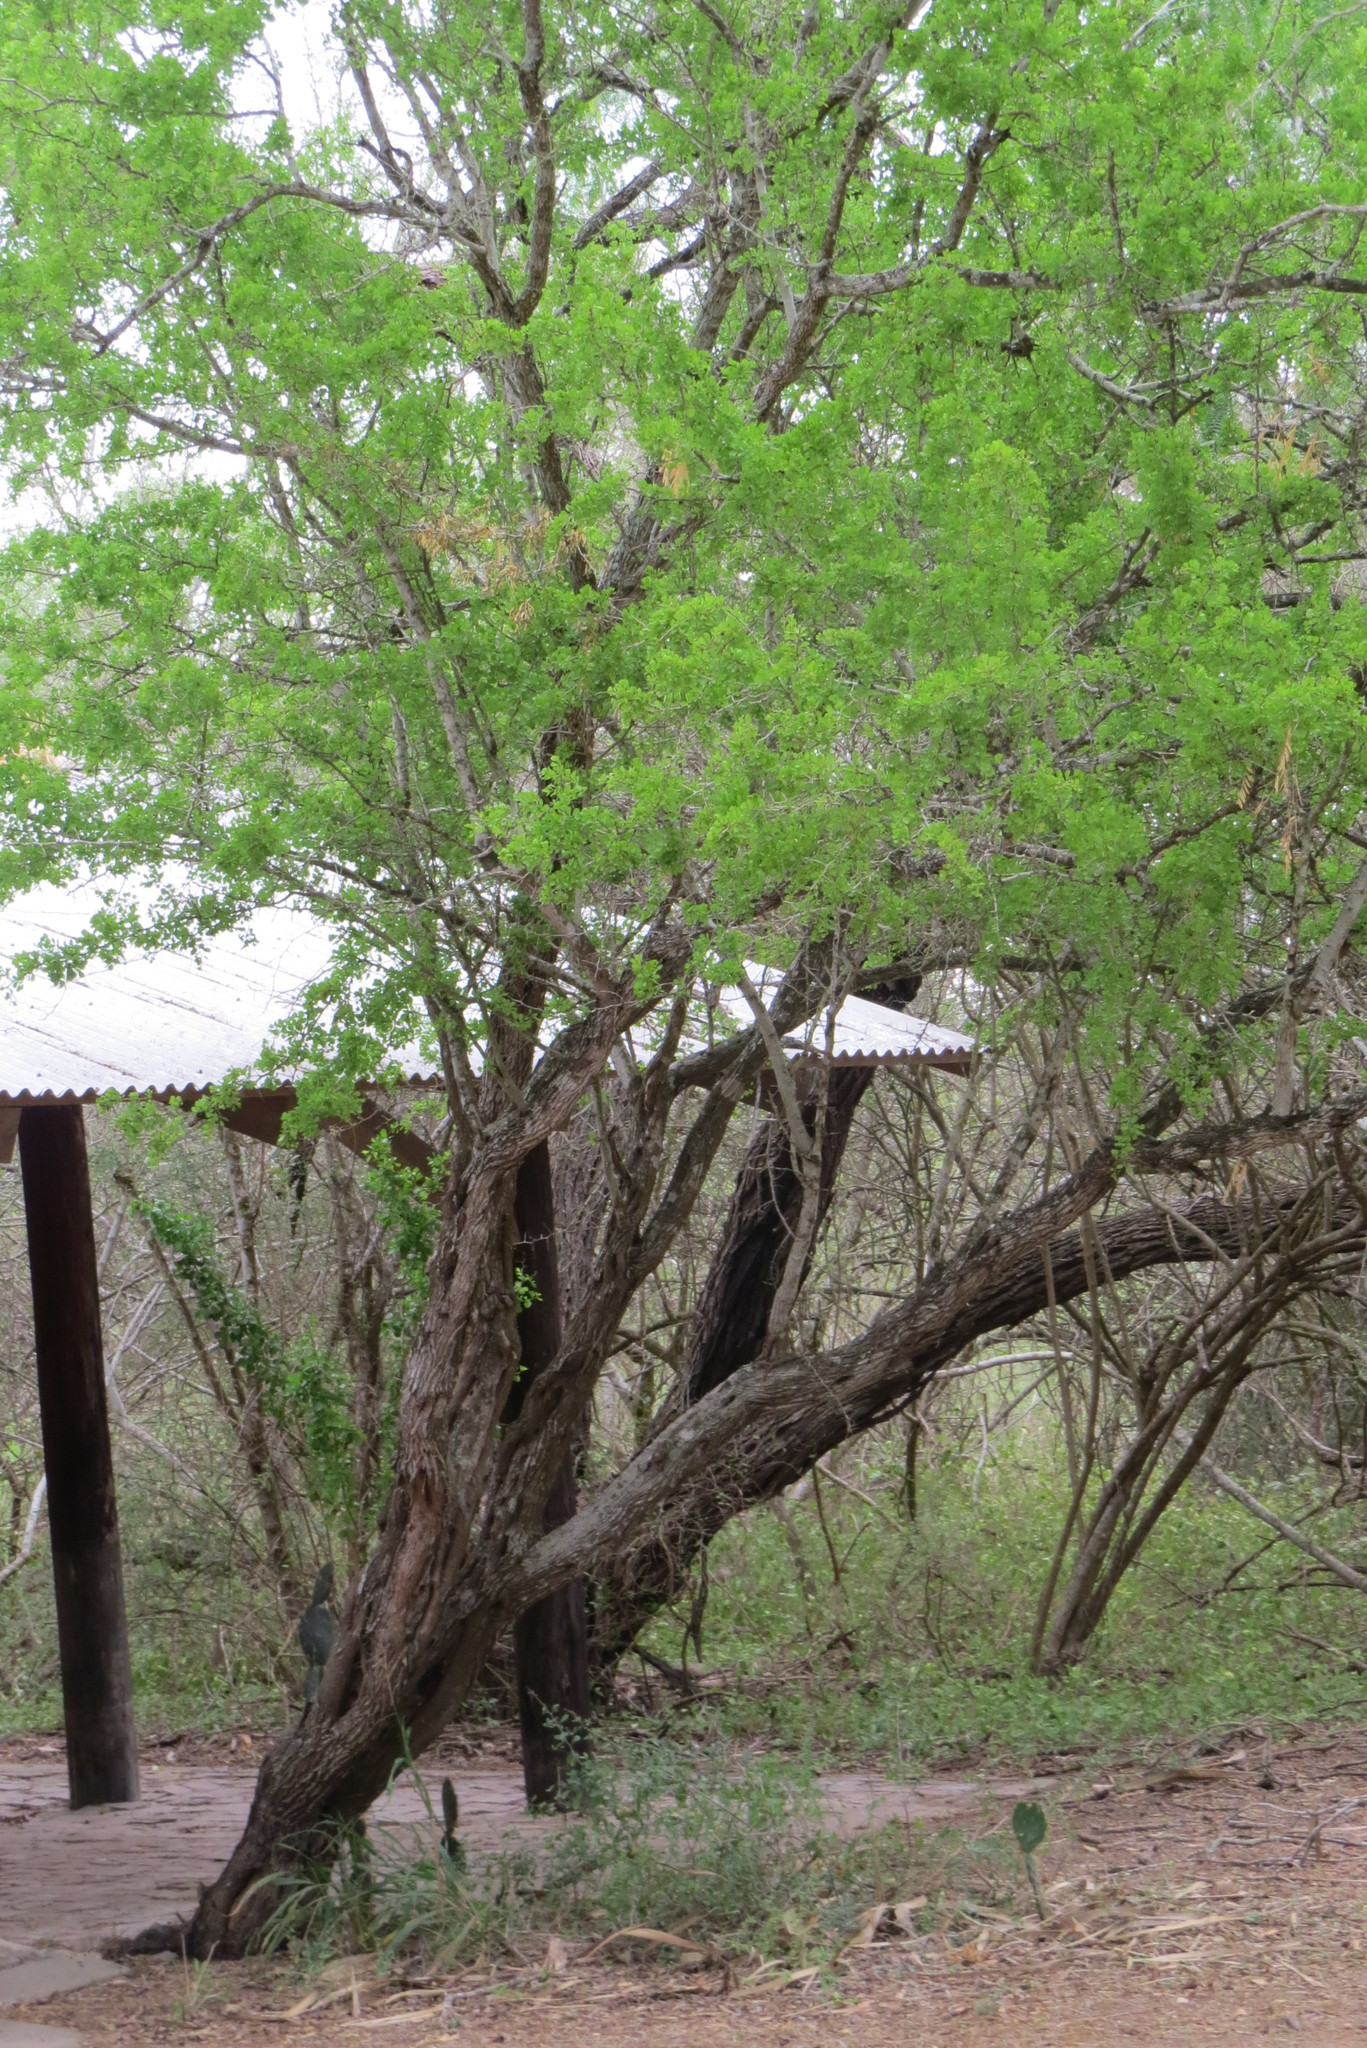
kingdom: Plantae
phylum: Tracheophyta
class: Magnoliopsida
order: Rosales
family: Rhamnaceae
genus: Condalia
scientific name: Condalia hookeri
